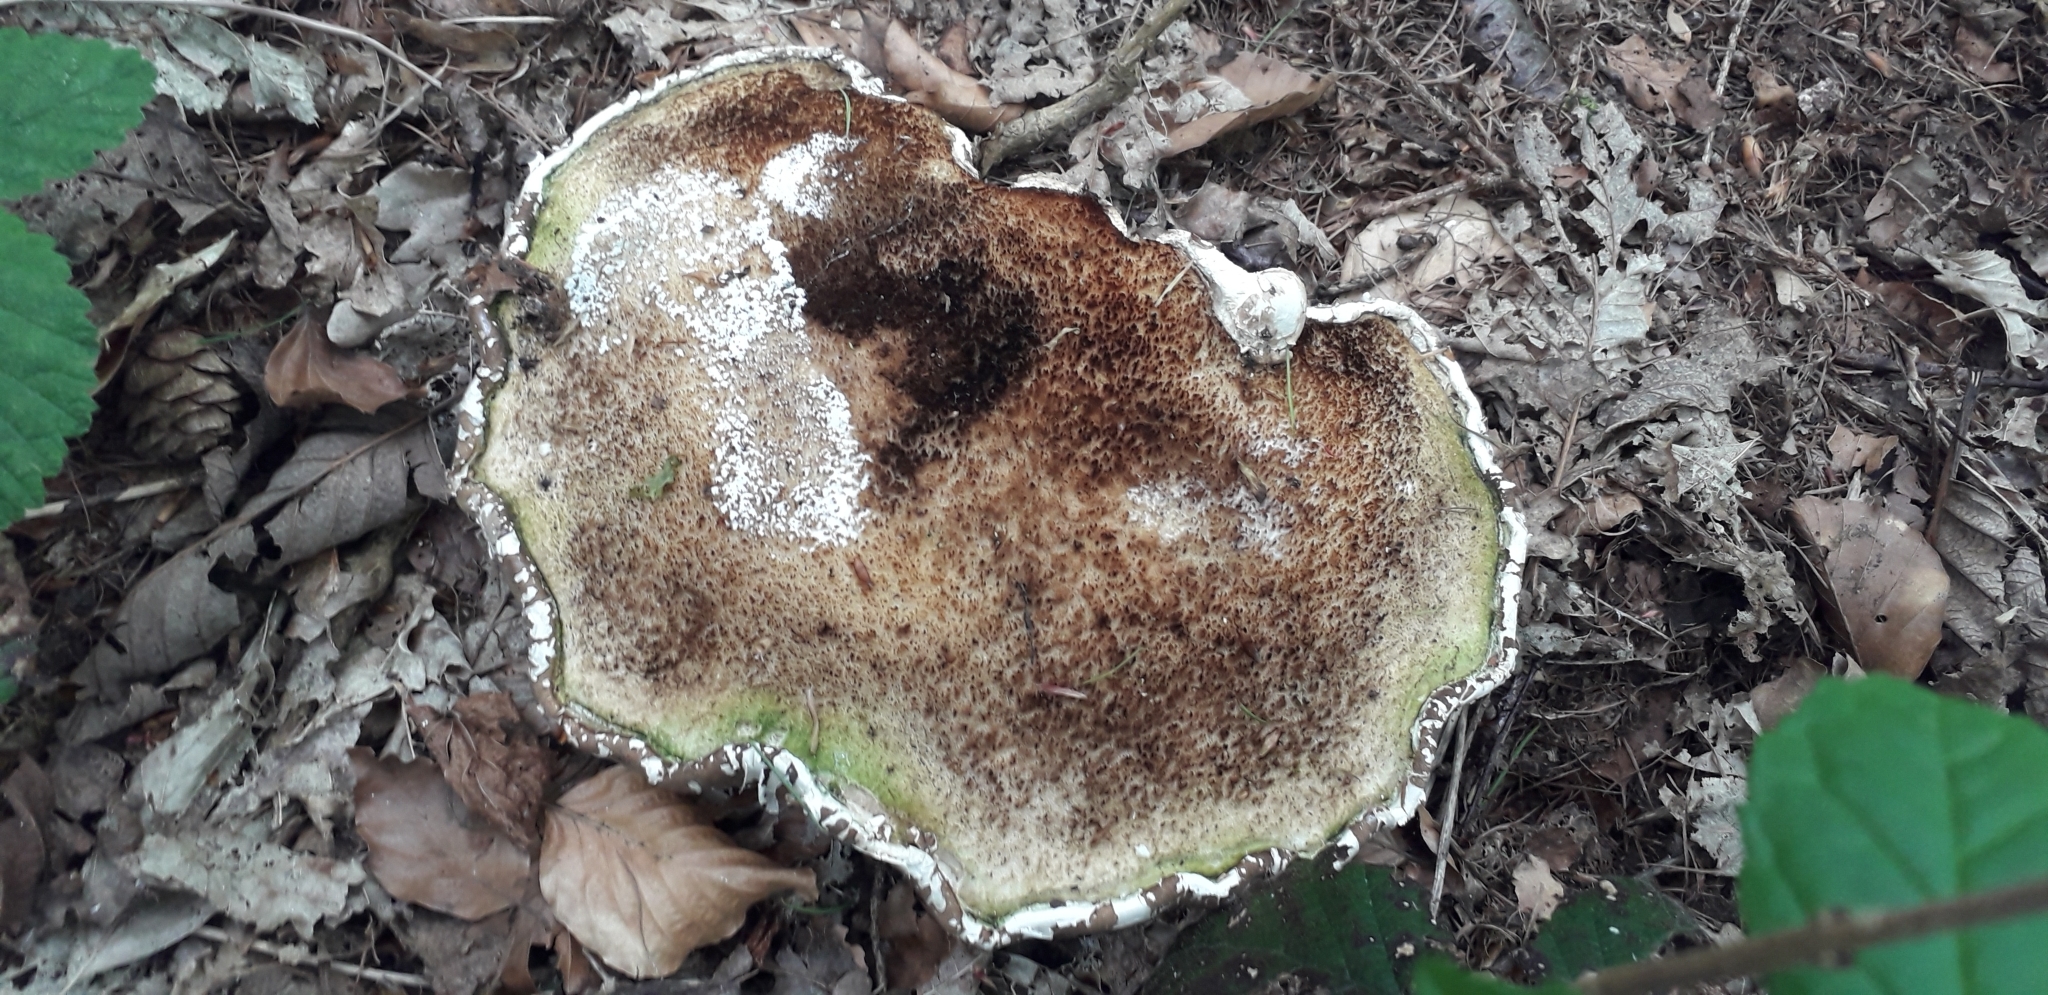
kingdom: Fungi
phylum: Basidiomycota
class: Agaricomycetes
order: Polyporales
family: Fomitopsidaceae
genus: Fomitopsis
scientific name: Fomitopsis betulina
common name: Birch polypore
